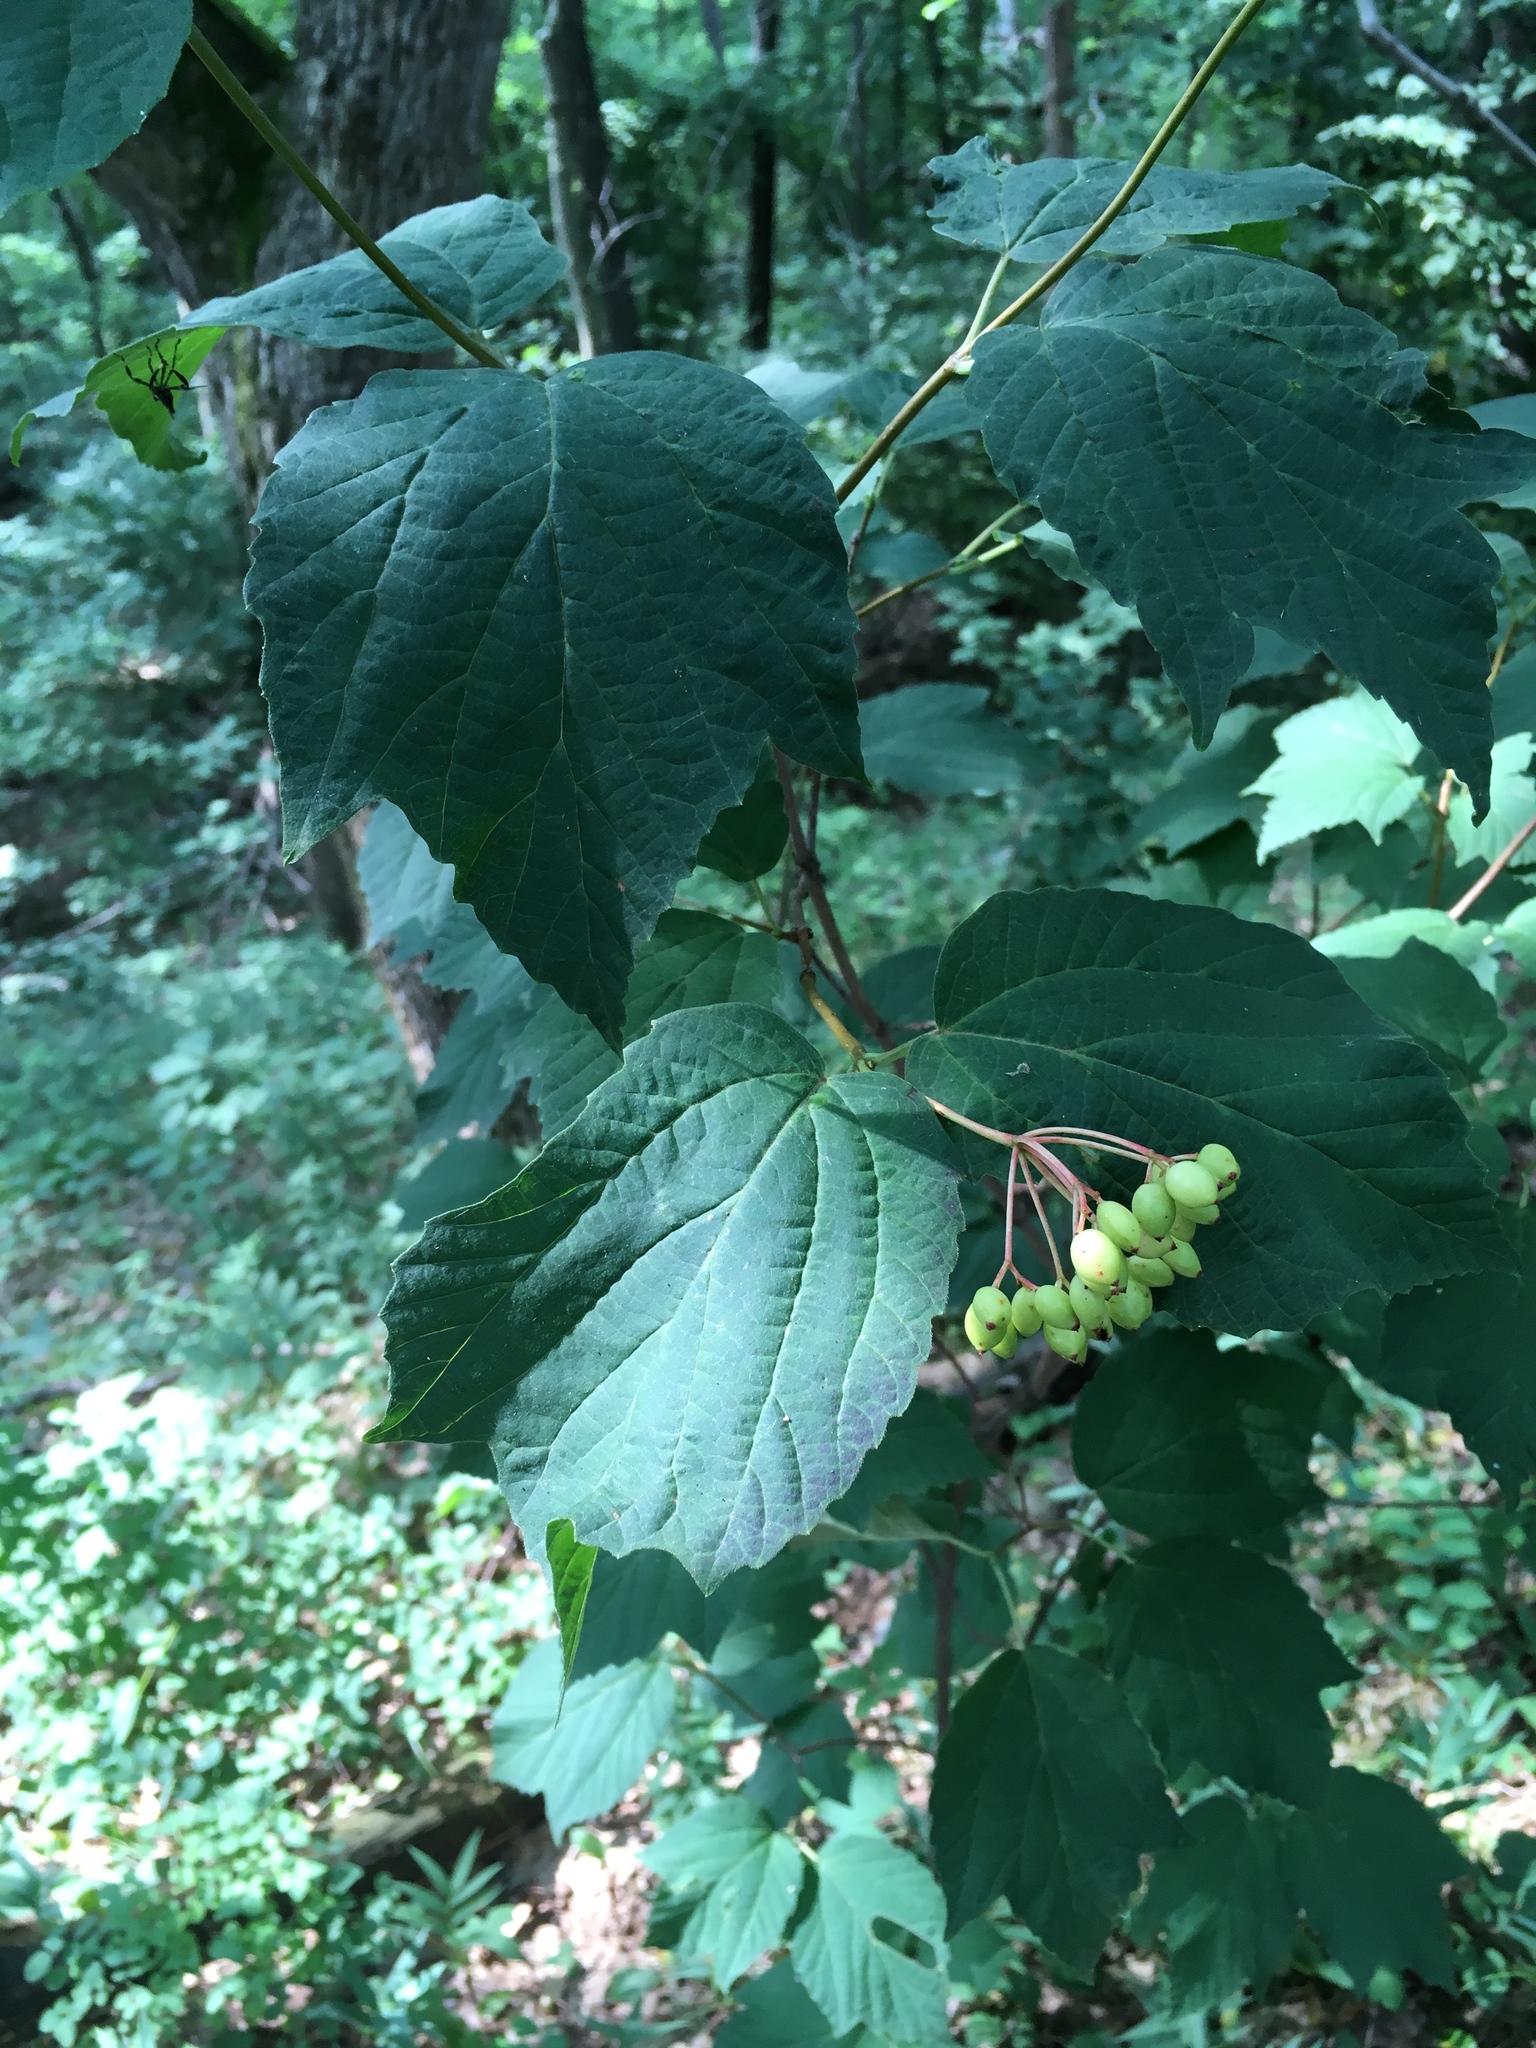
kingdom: Plantae
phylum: Tracheophyta
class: Magnoliopsida
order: Dipsacales
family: Viburnaceae
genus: Viburnum
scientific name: Viburnum acerifolium
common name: Dockmackie
